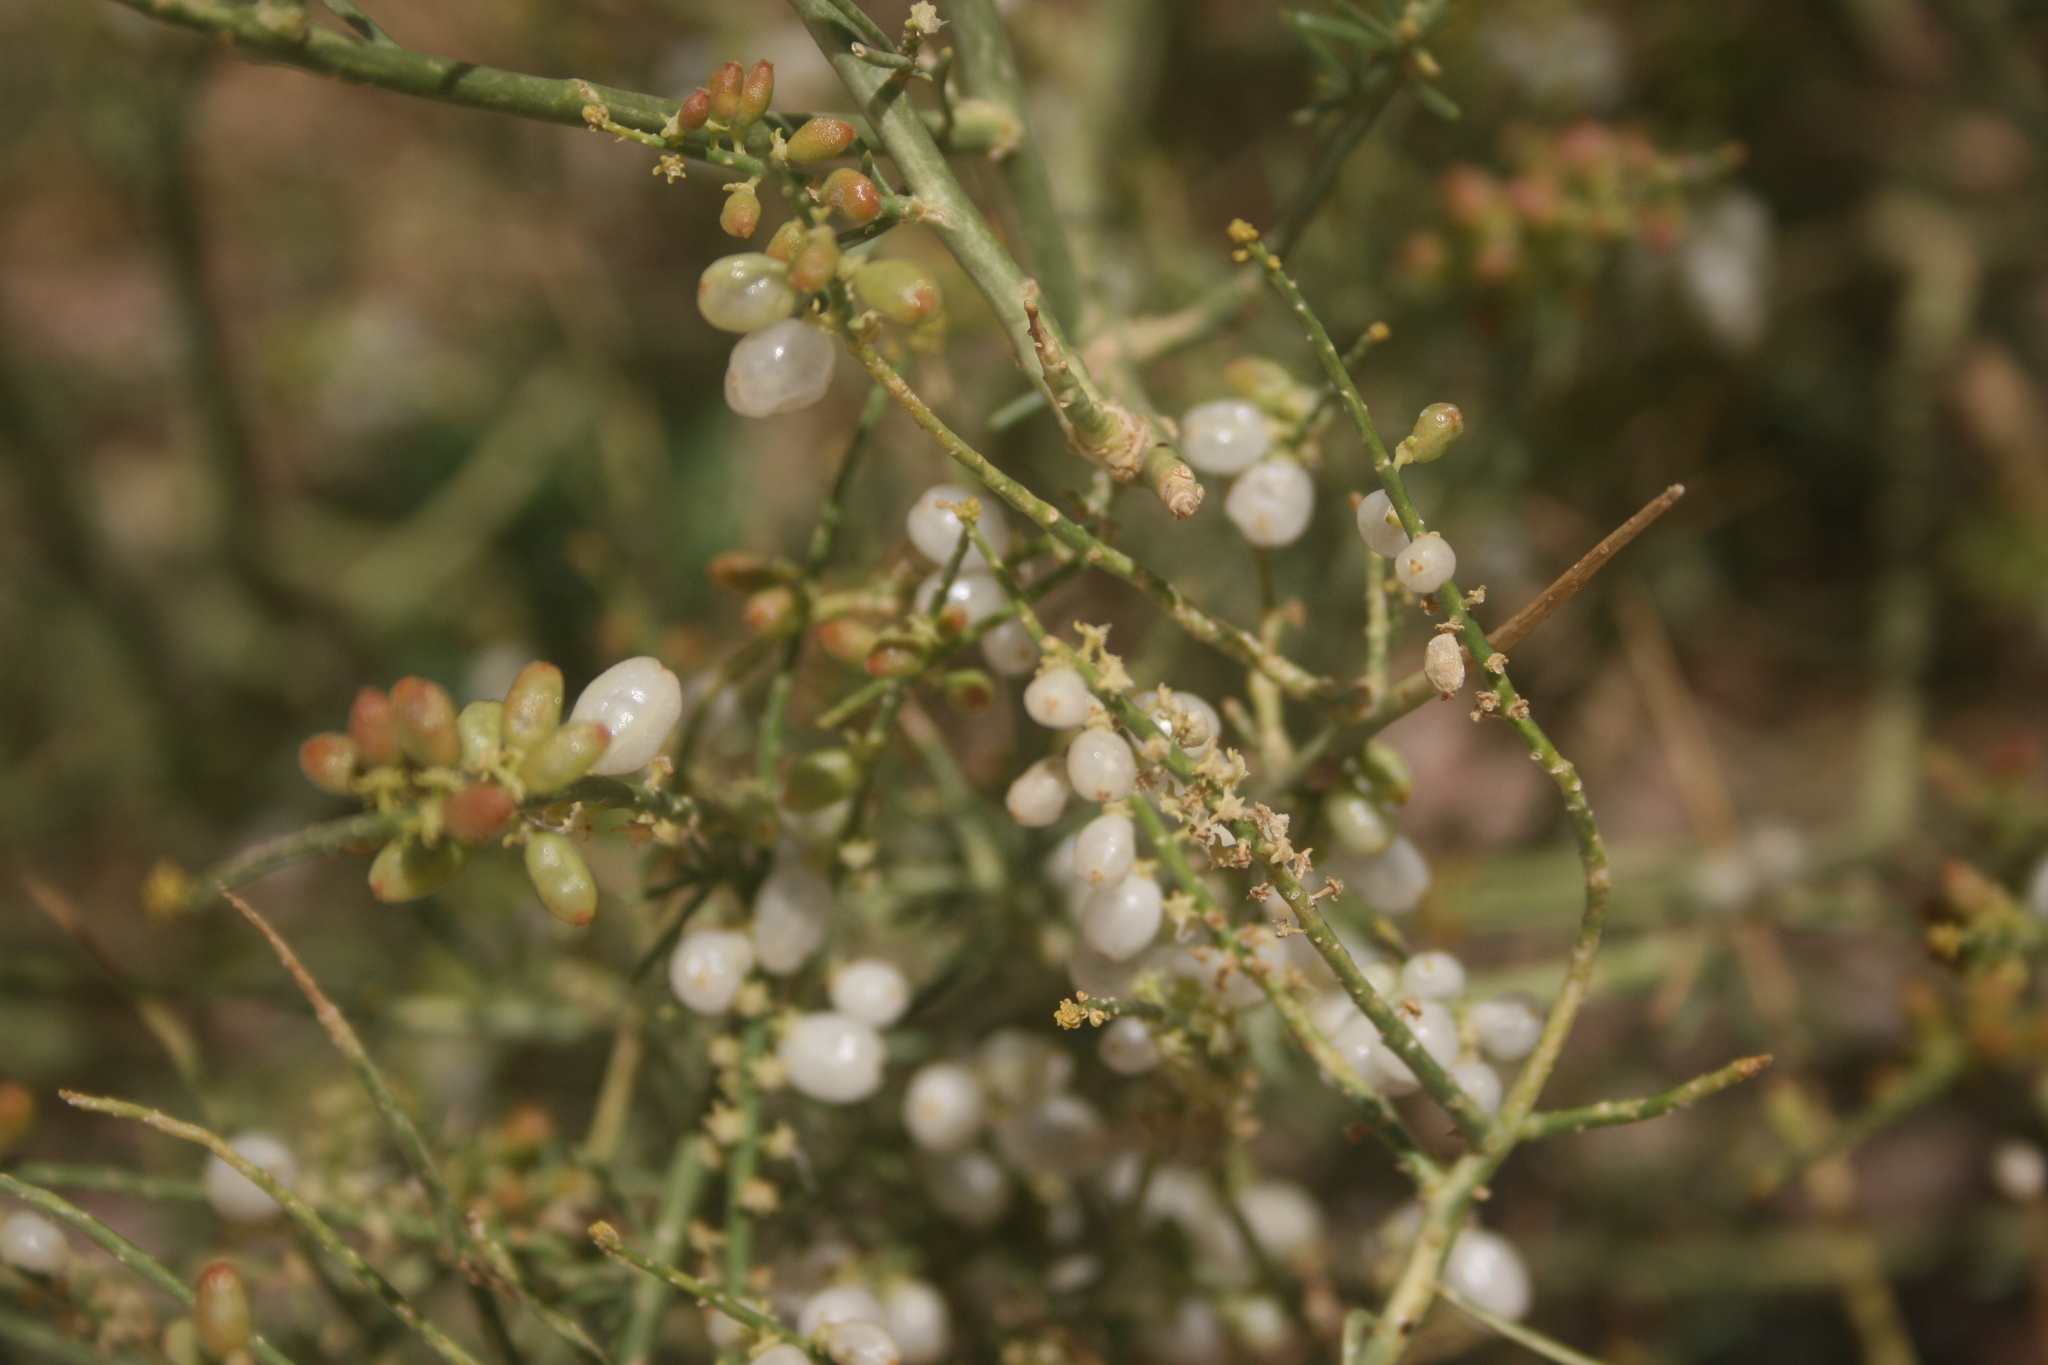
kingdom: Plantae
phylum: Tracheophyta
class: Magnoliopsida
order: Brassicales
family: Resedaceae
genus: Ochradenus
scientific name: Ochradenus baccatus
